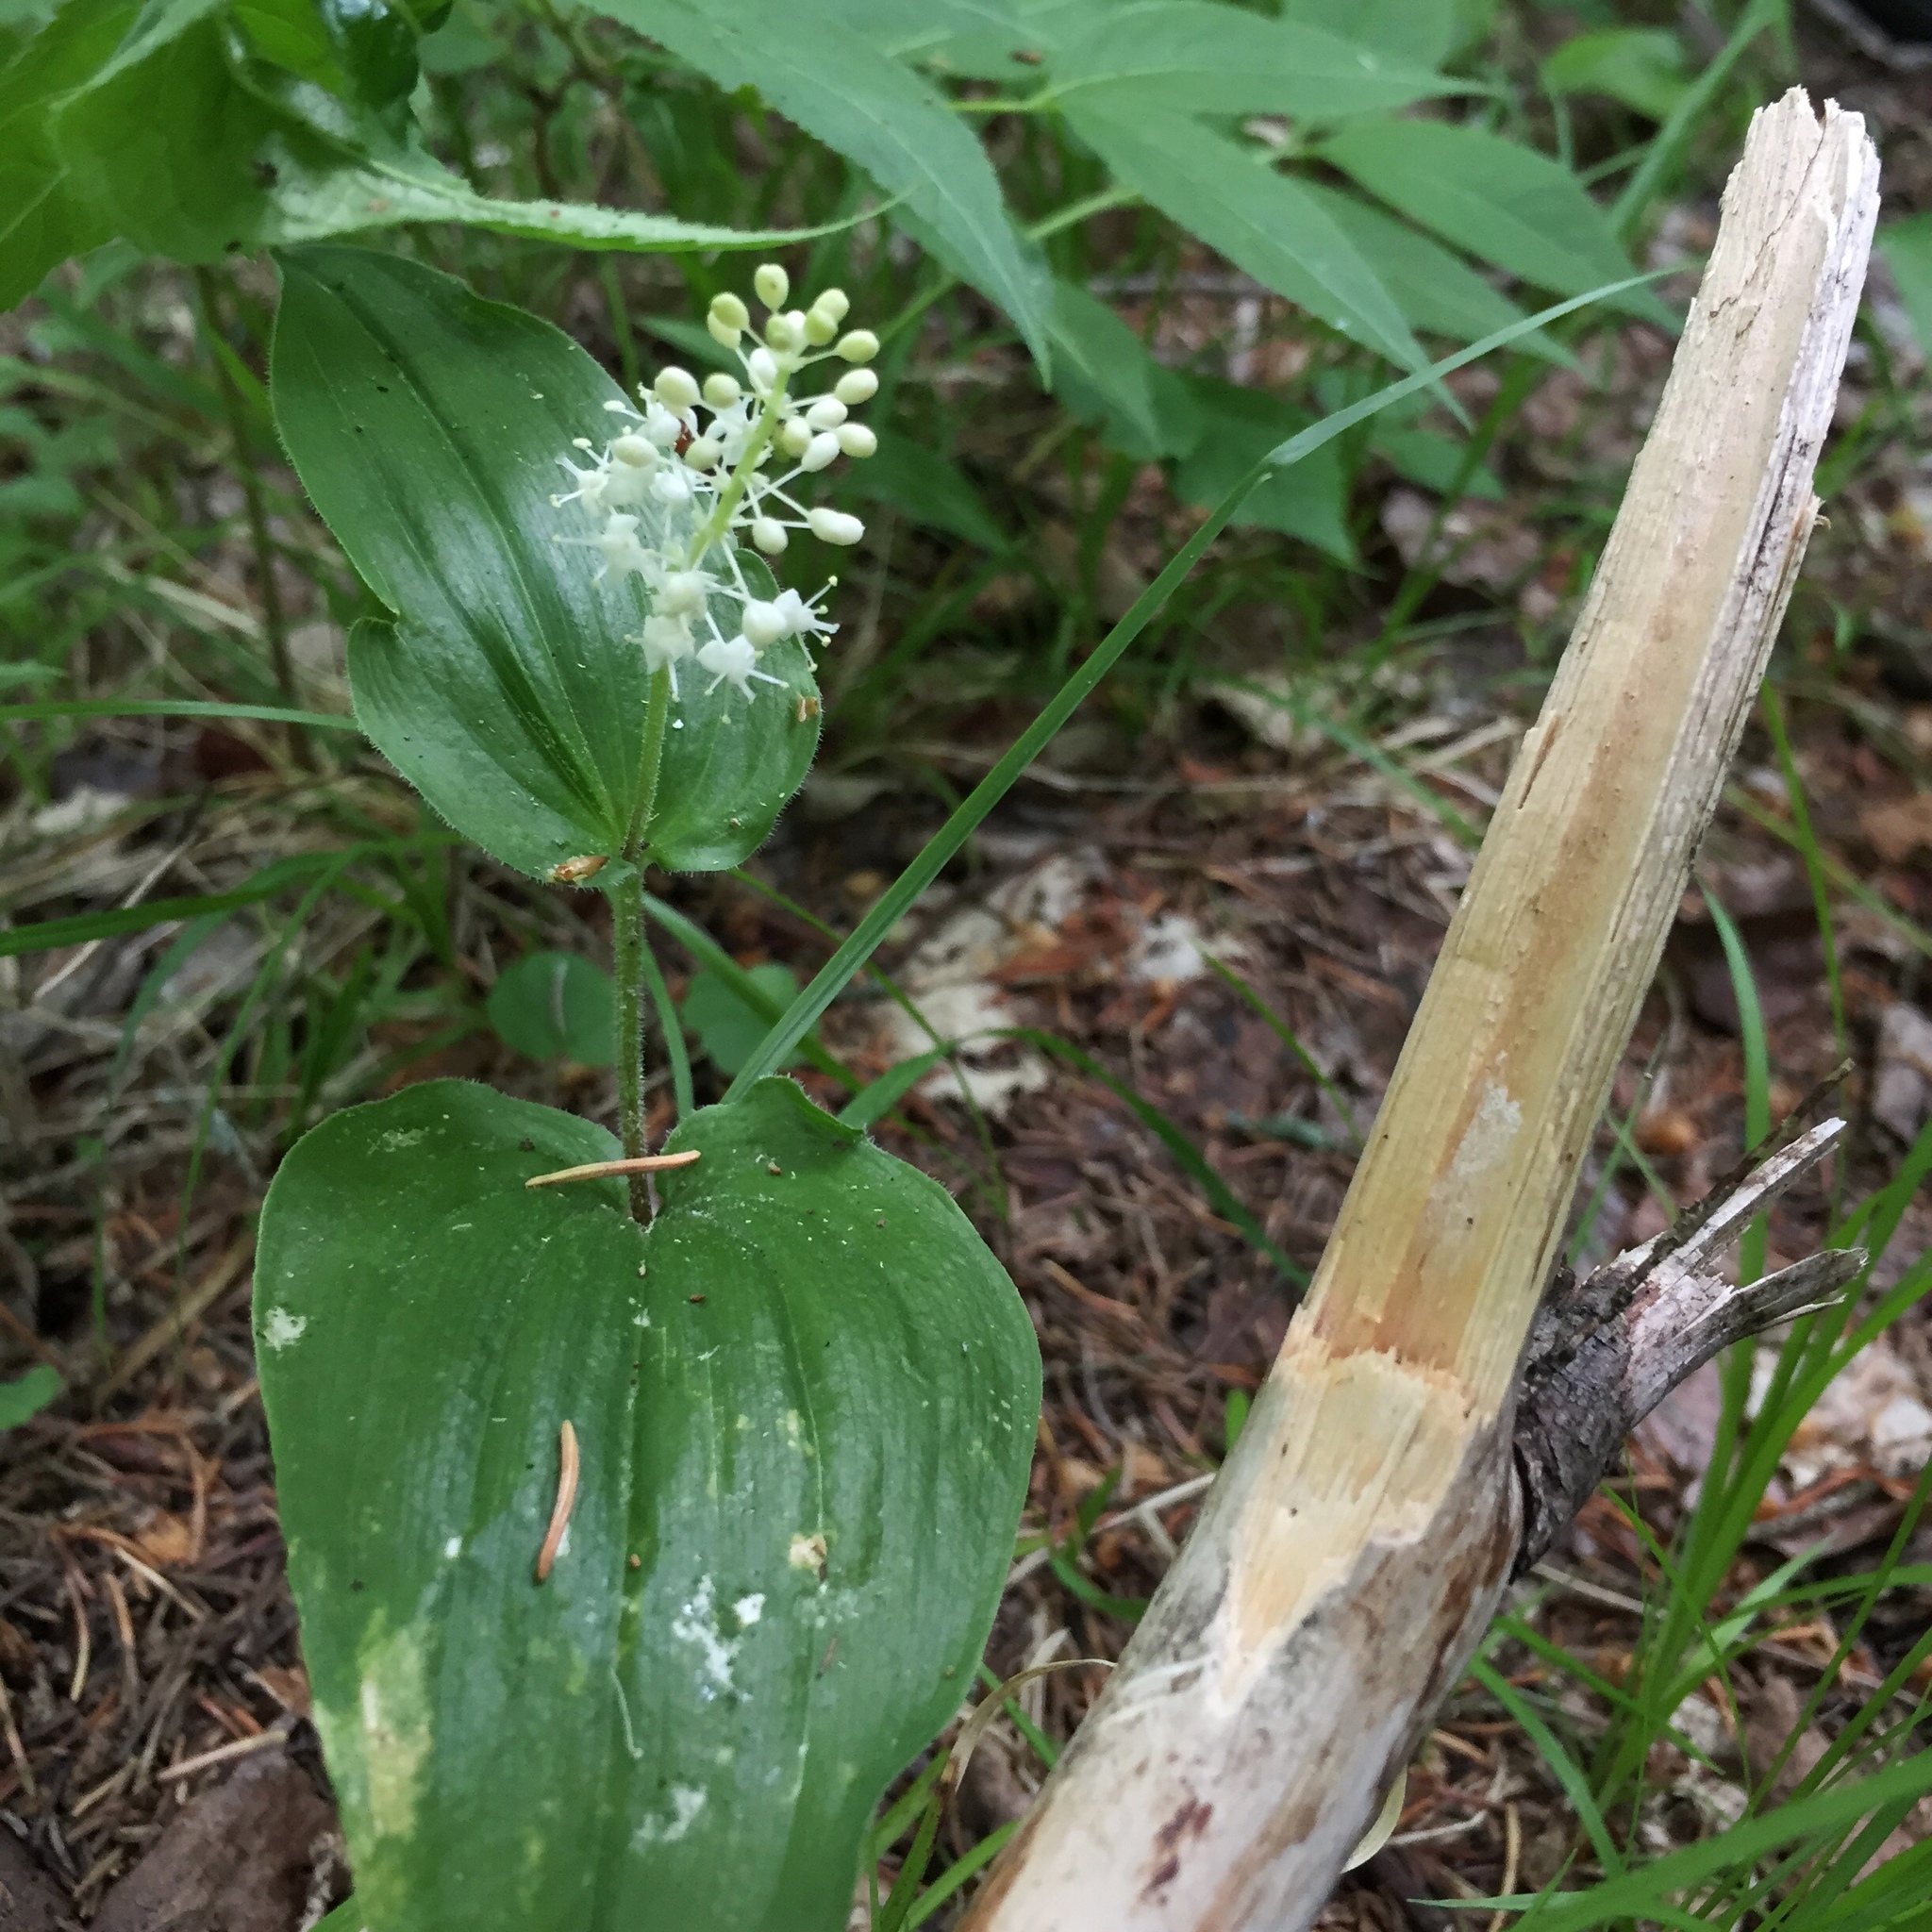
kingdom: Plantae
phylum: Tracheophyta
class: Liliopsida
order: Asparagales
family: Asparagaceae
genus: Maianthemum
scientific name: Maianthemum canadense
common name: False lily-of-the-valley
